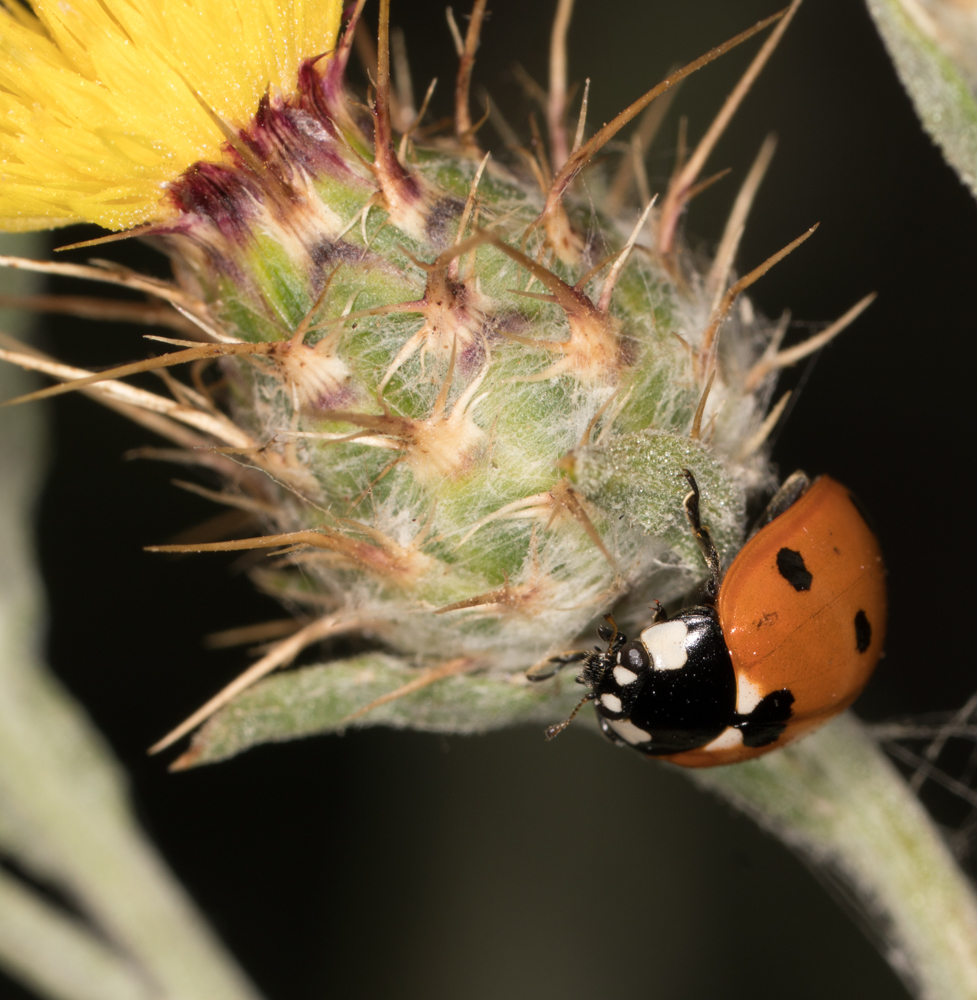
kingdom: Animalia
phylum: Arthropoda
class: Insecta
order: Coleoptera
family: Coccinellidae
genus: Coccinella
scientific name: Coccinella septempunctata
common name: Sevenspotted lady beetle
